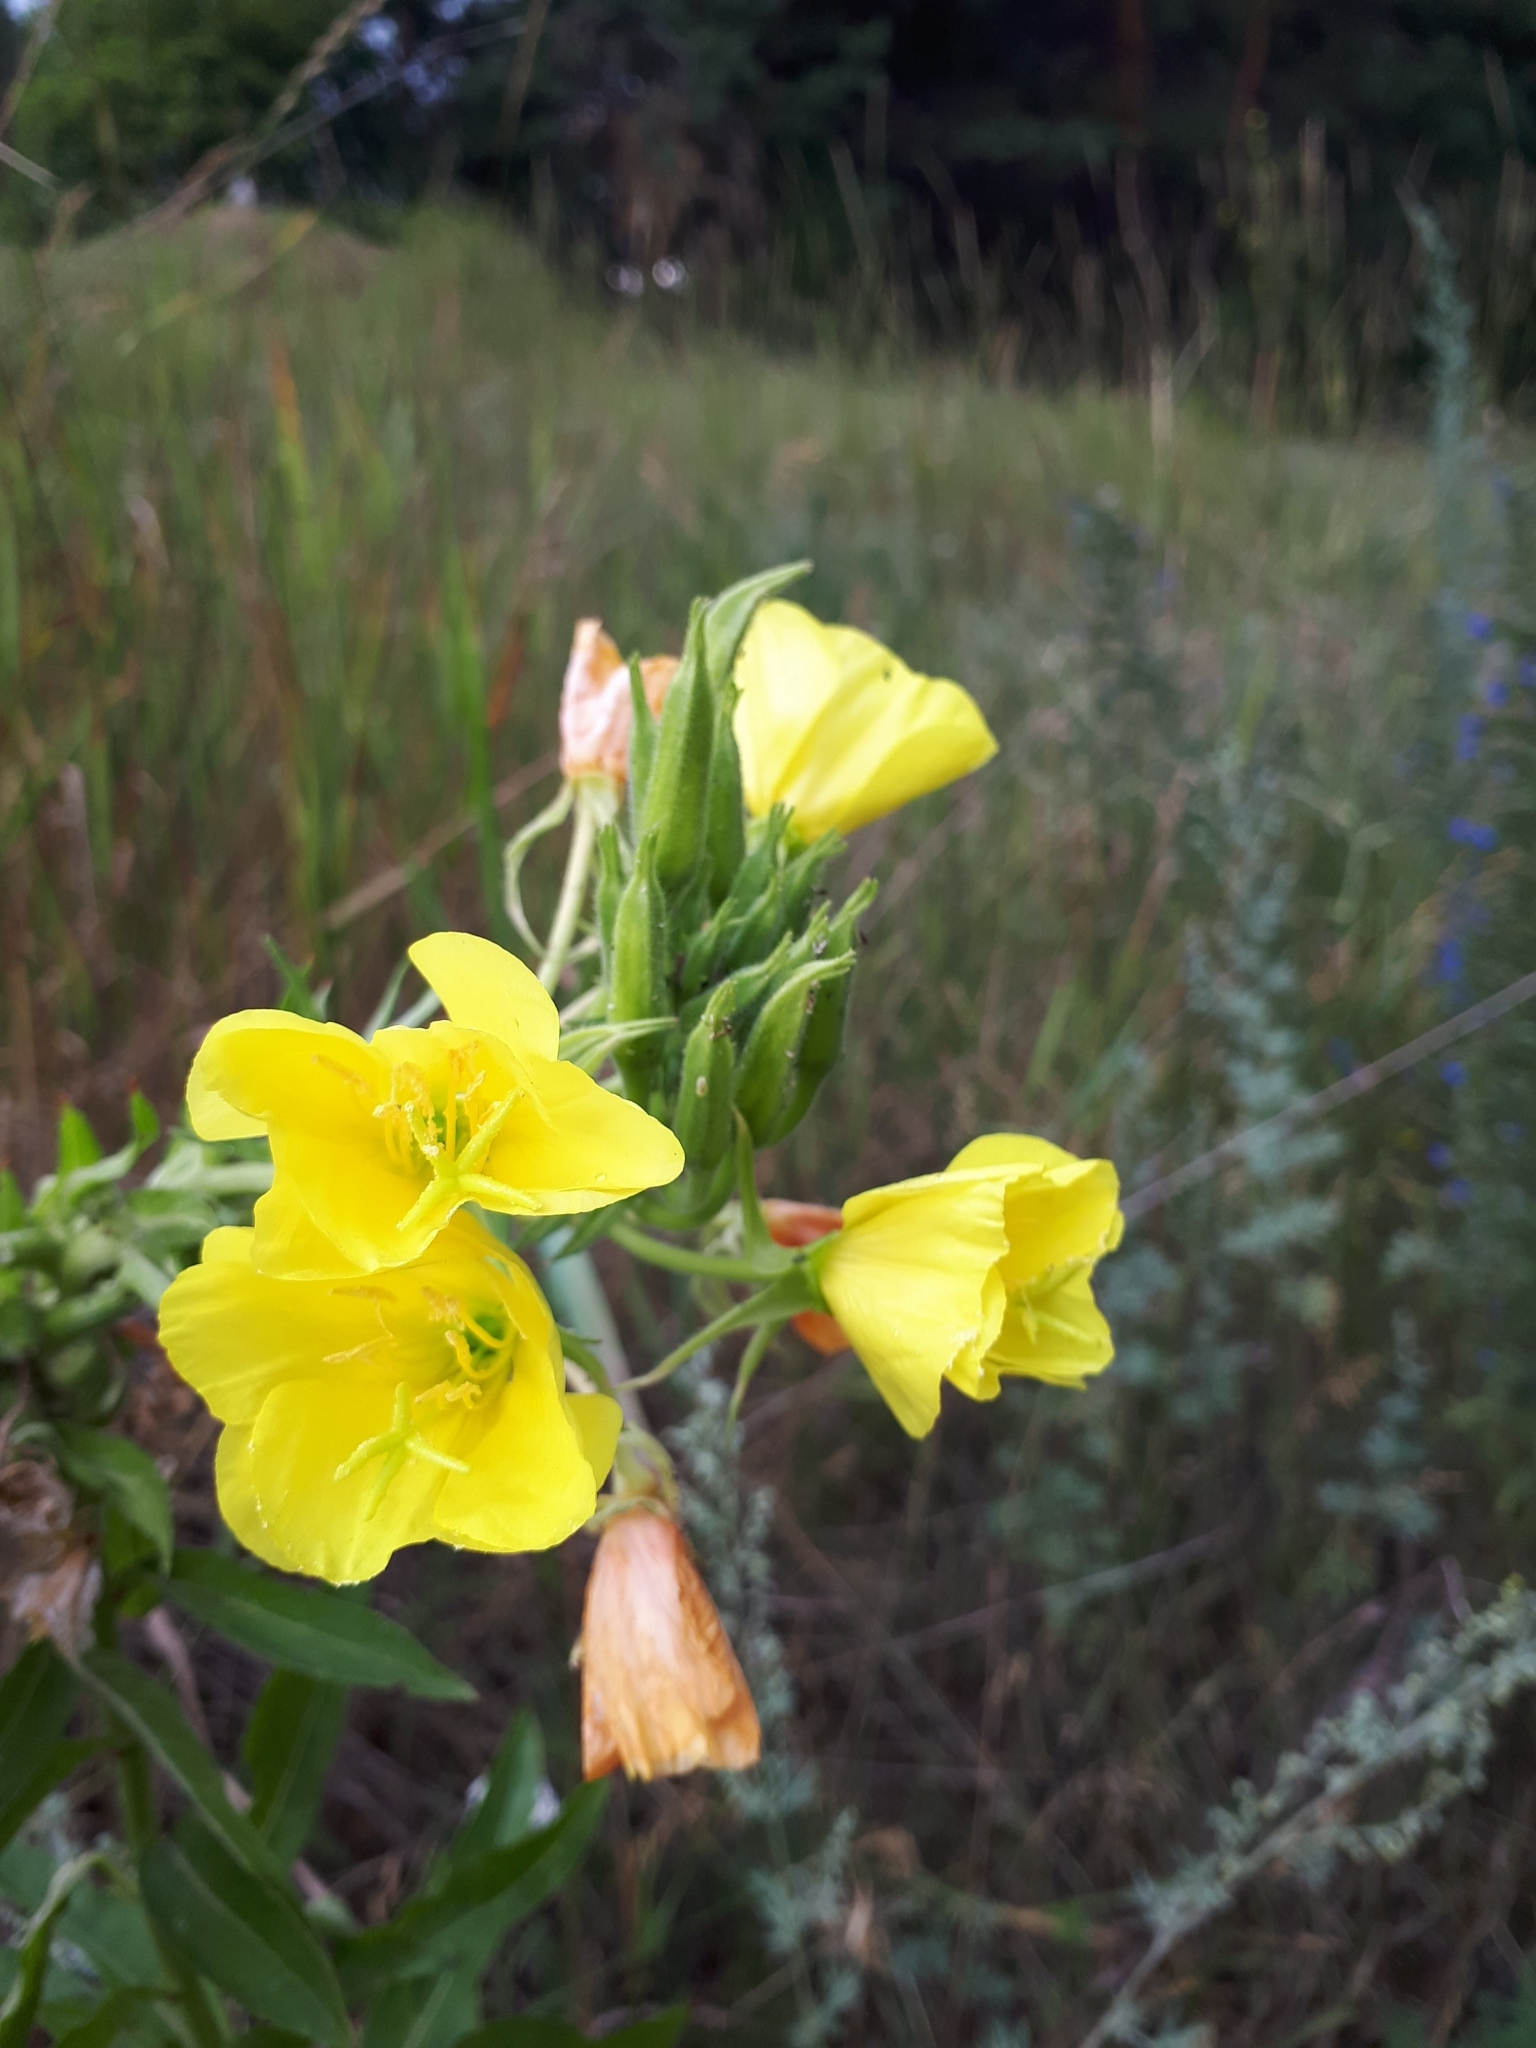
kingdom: Plantae
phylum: Tracheophyta
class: Magnoliopsida
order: Myrtales
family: Onagraceae
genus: Oenothera
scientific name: Oenothera biennis
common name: Common evening-primrose
